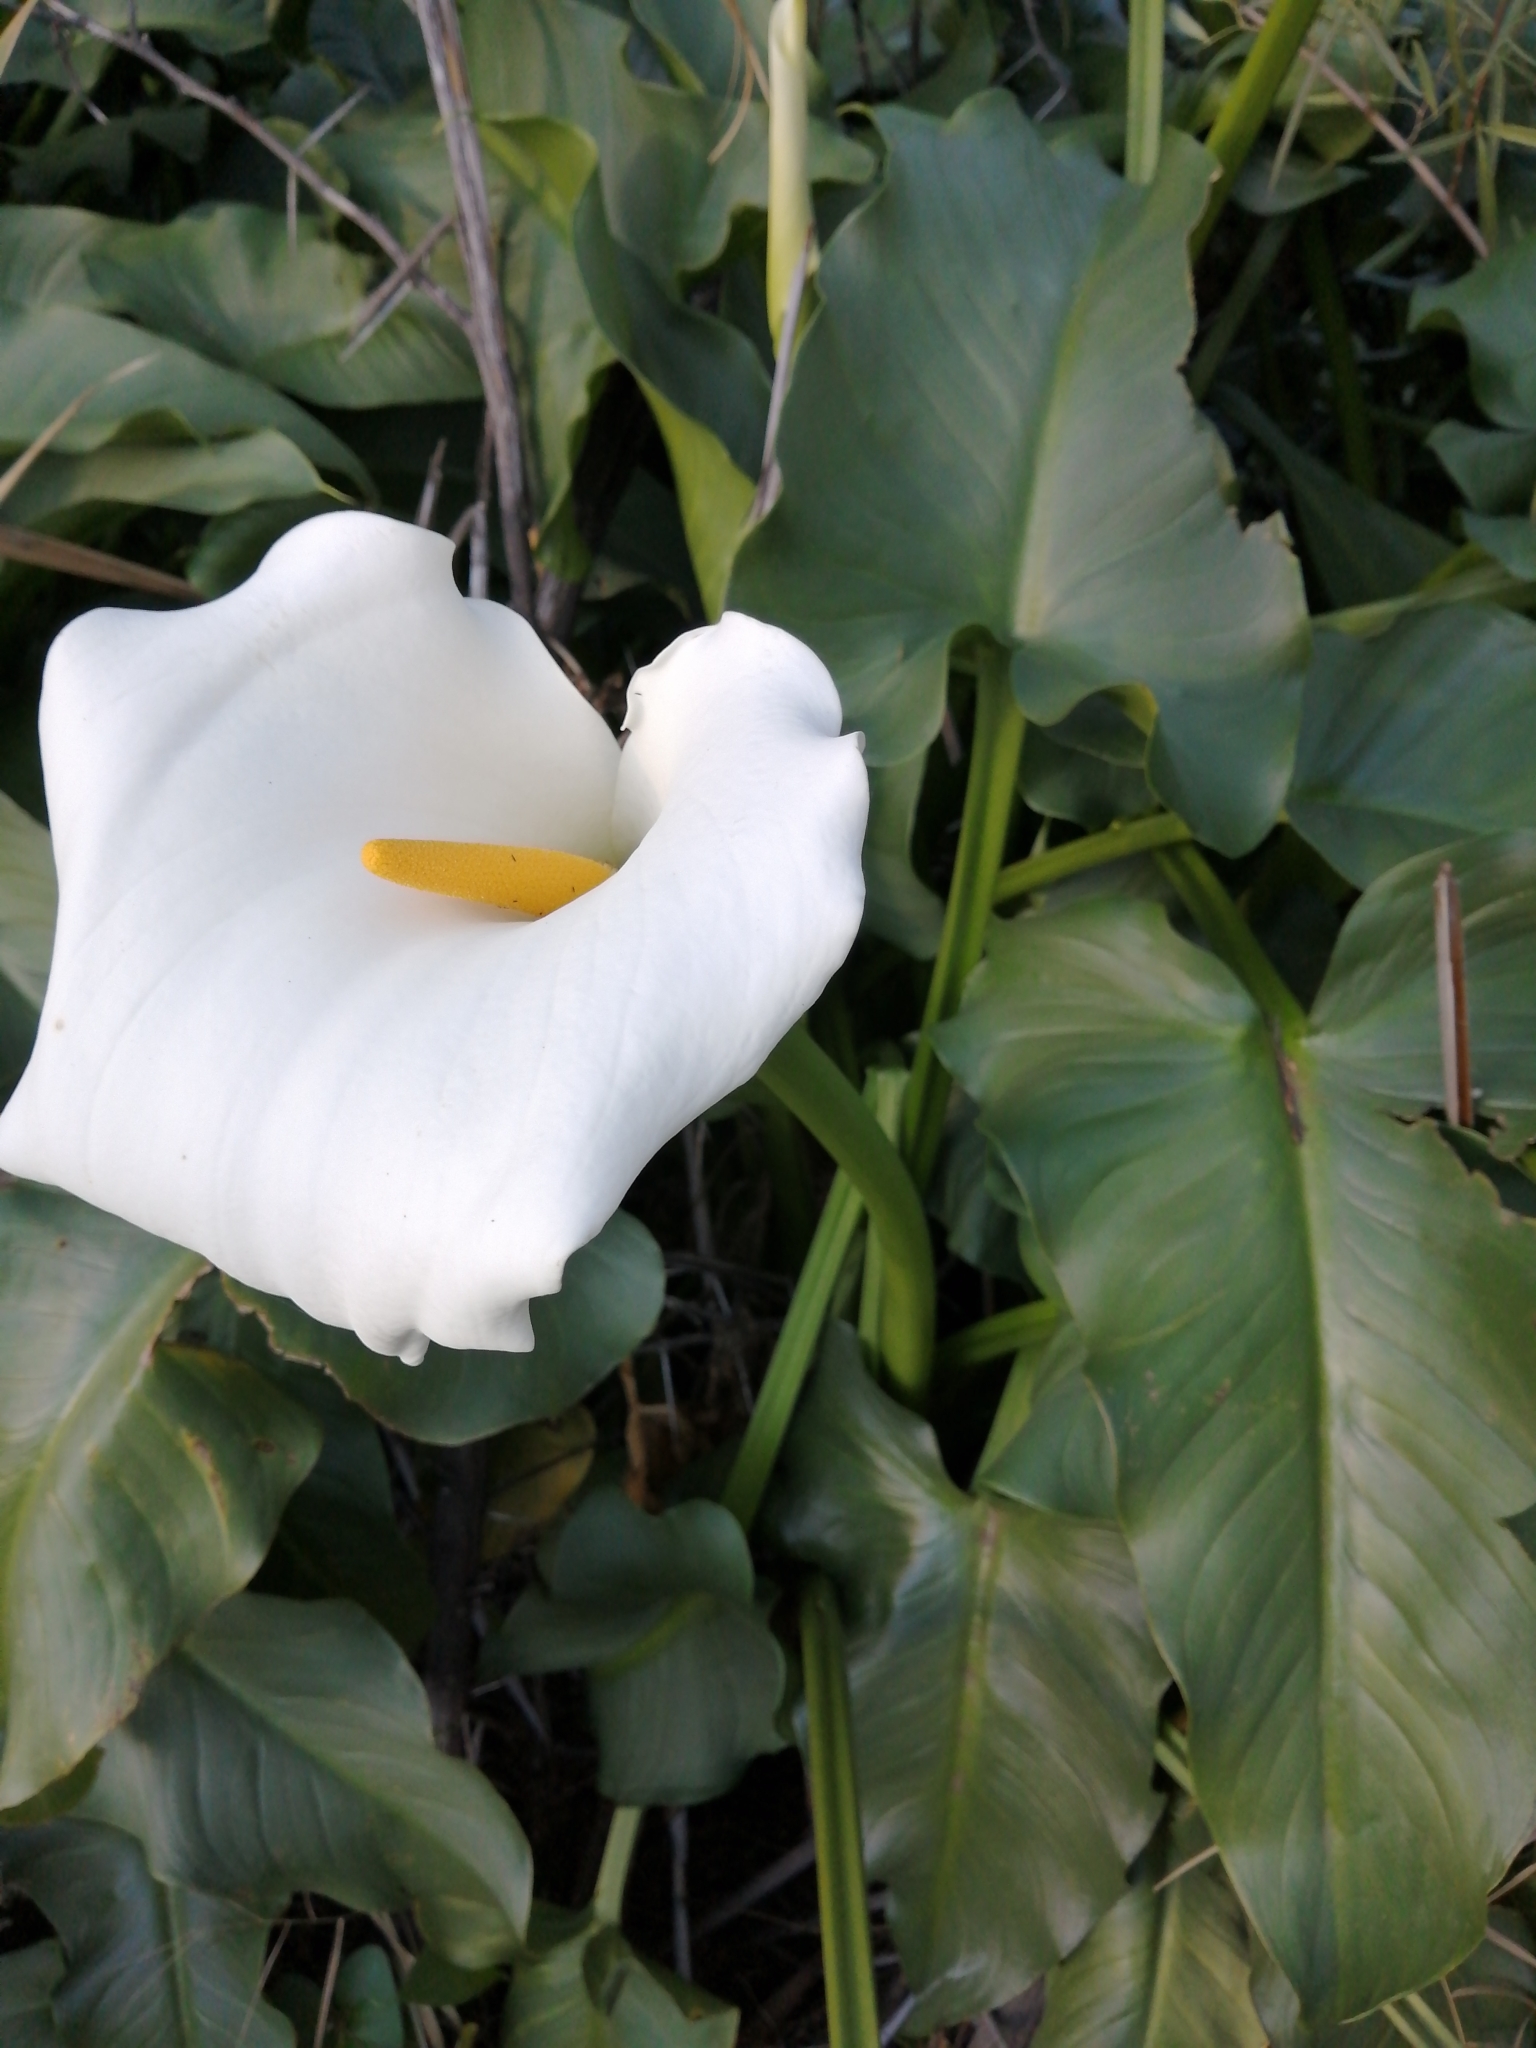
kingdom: Plantae
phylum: Tracheophyta
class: Liliopsida
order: Alismatales
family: Araceae
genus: Zantedeschia
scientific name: Zantedeschia aethiopica
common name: Altar-lily
